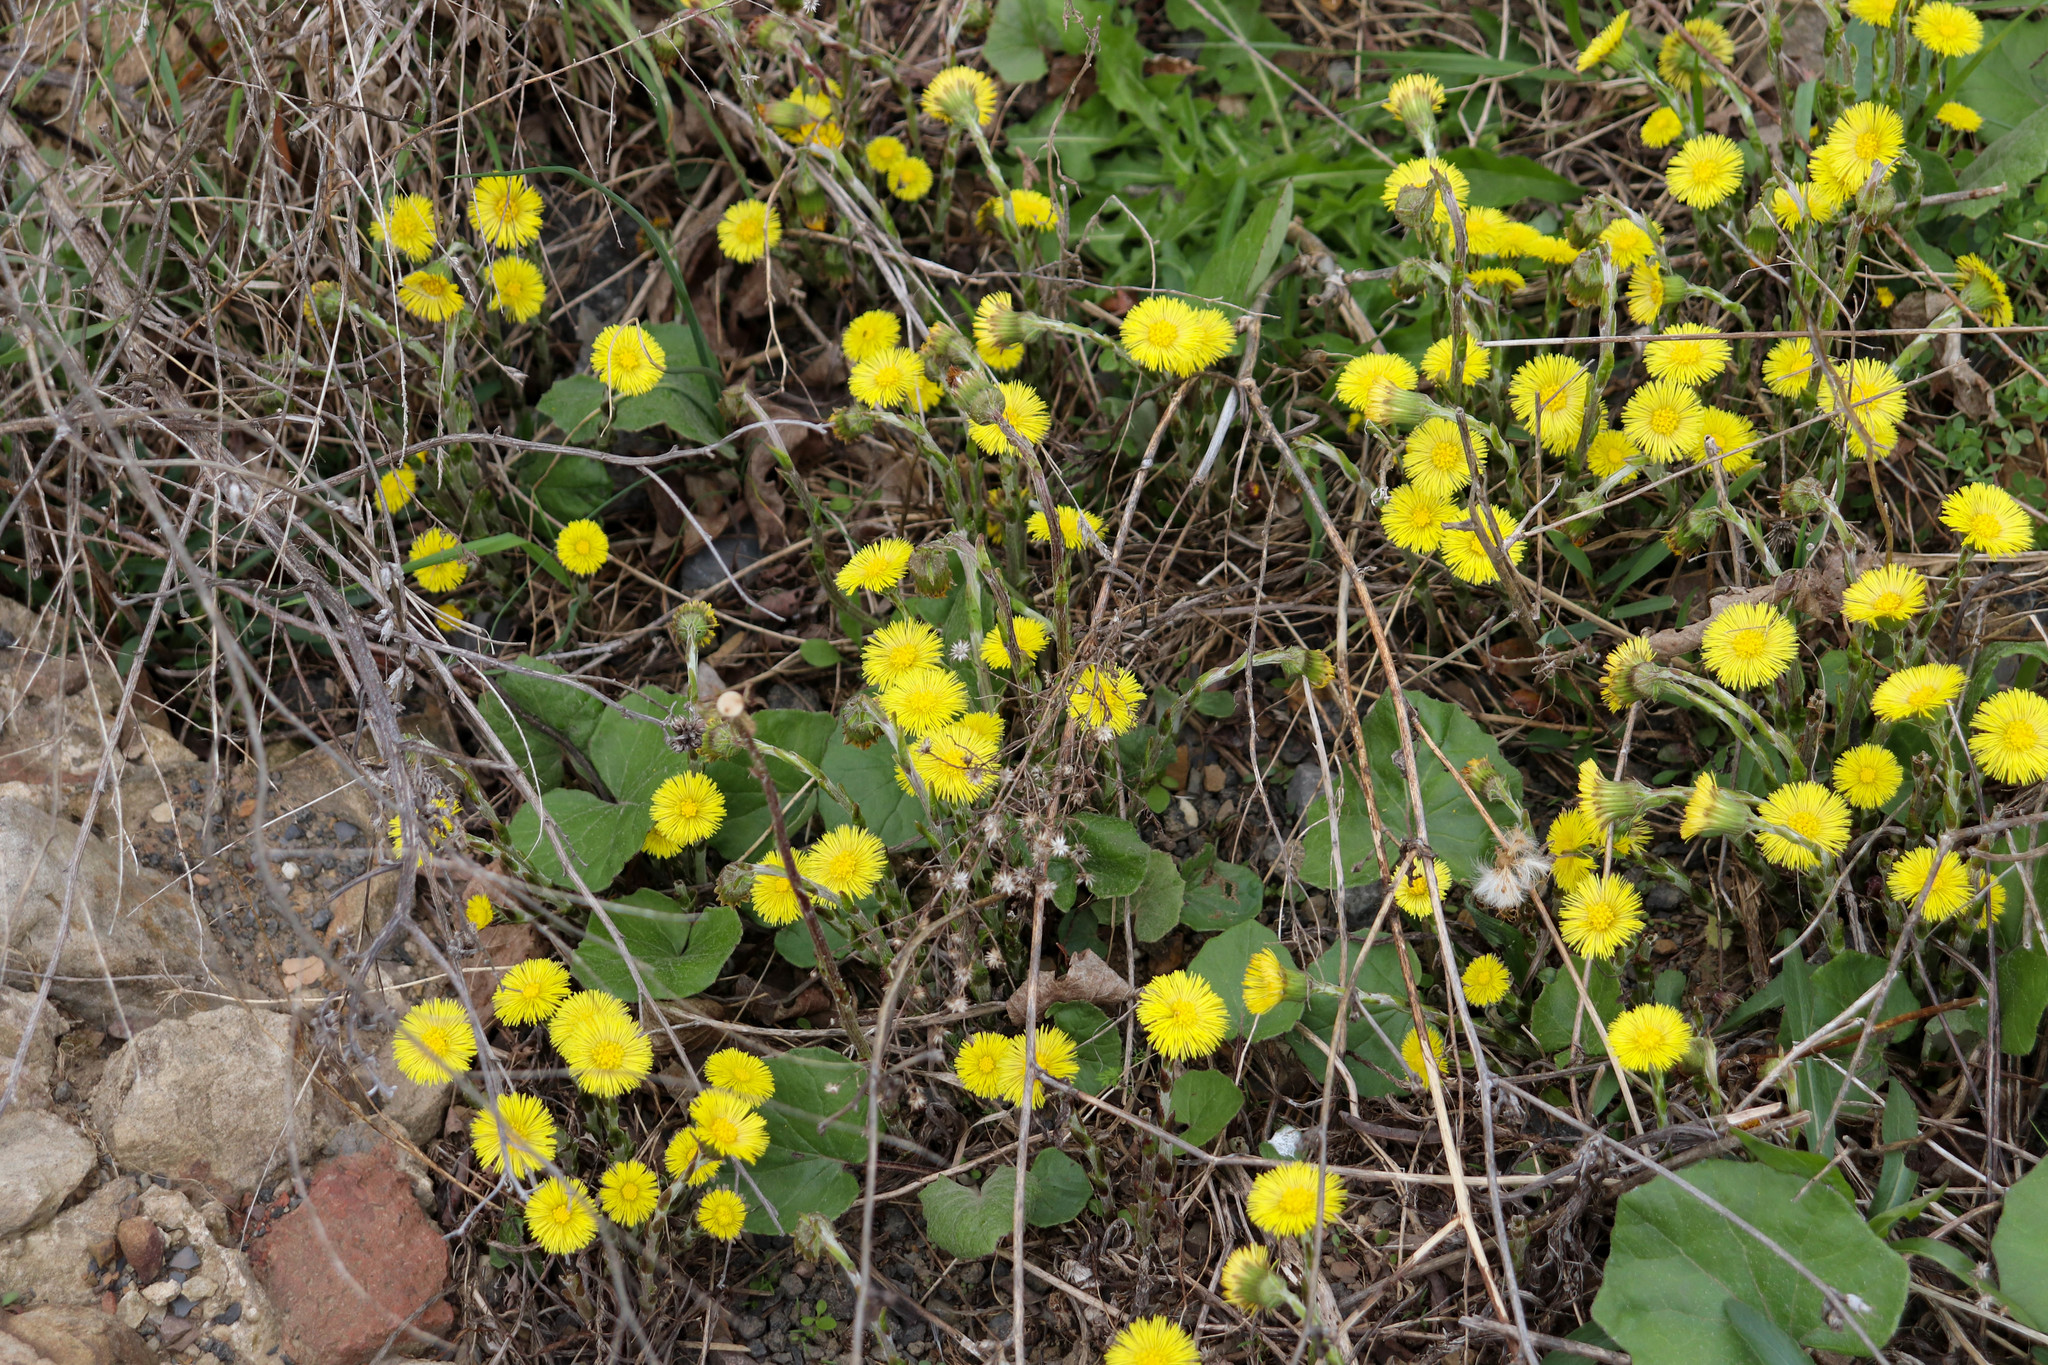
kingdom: Plantae
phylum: Tracheophyta
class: Magnoliopsida
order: Asterales
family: Asteraceae
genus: Tussilago
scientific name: Tussilago farfara
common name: Coltsfoot
